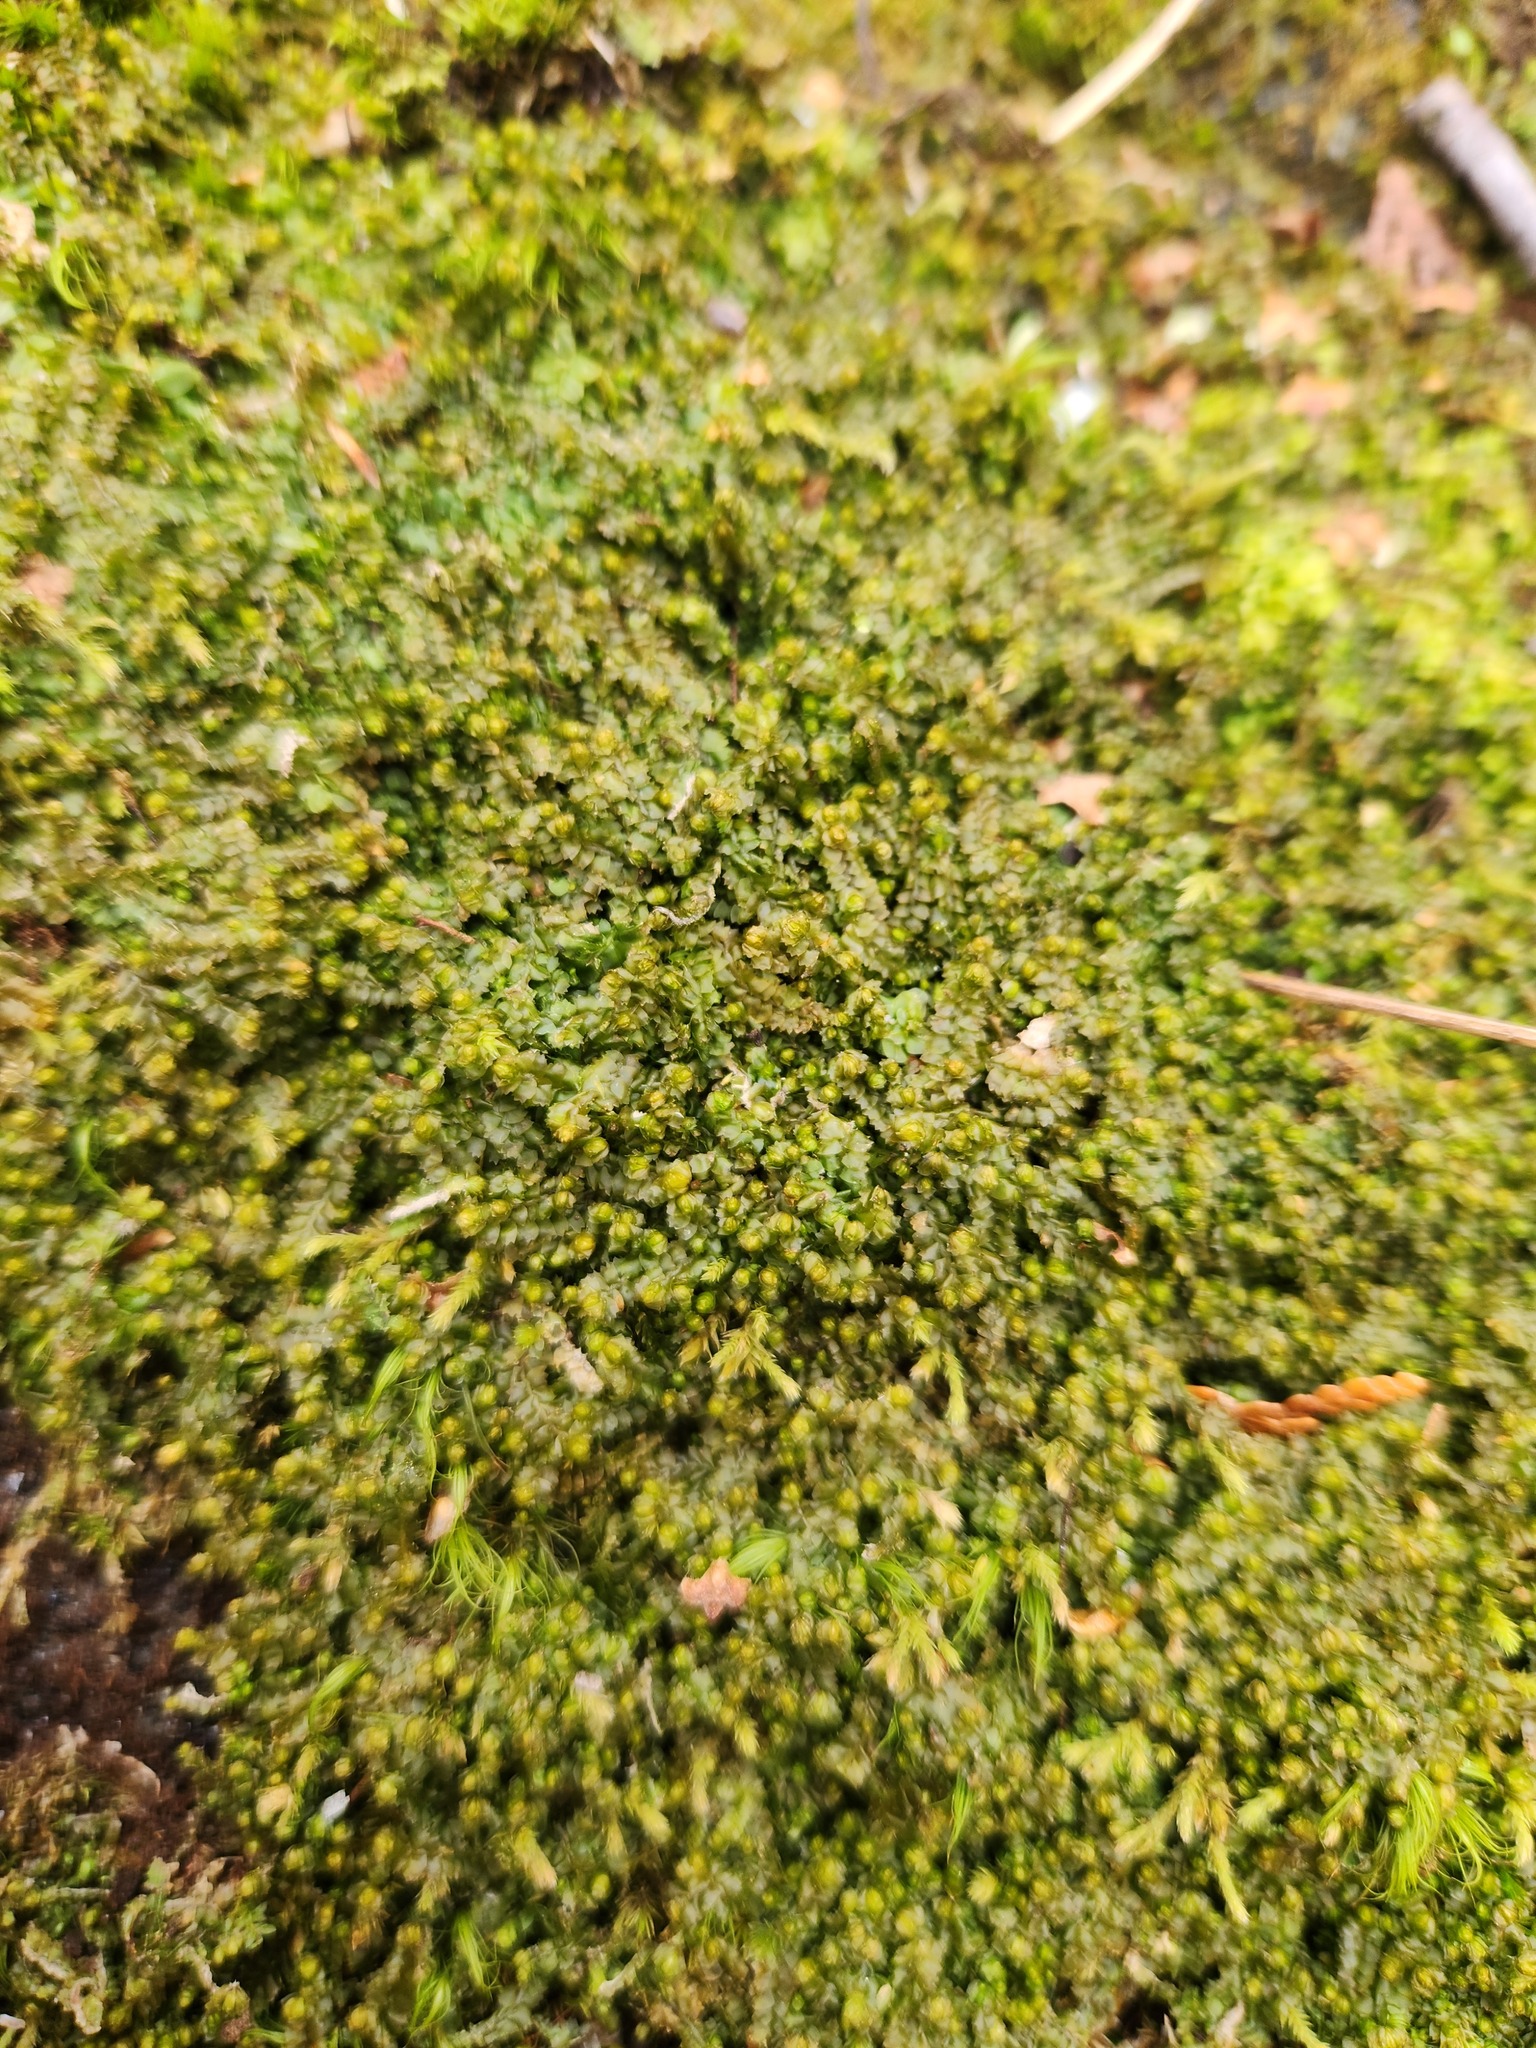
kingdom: Plantae
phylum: Marchantiophyta
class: Jungermanniopsida
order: Jungermanniales
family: Anastrophyllaceae
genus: Barbilophozia
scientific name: Barbilophozia barbata
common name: Bearded pawwort
